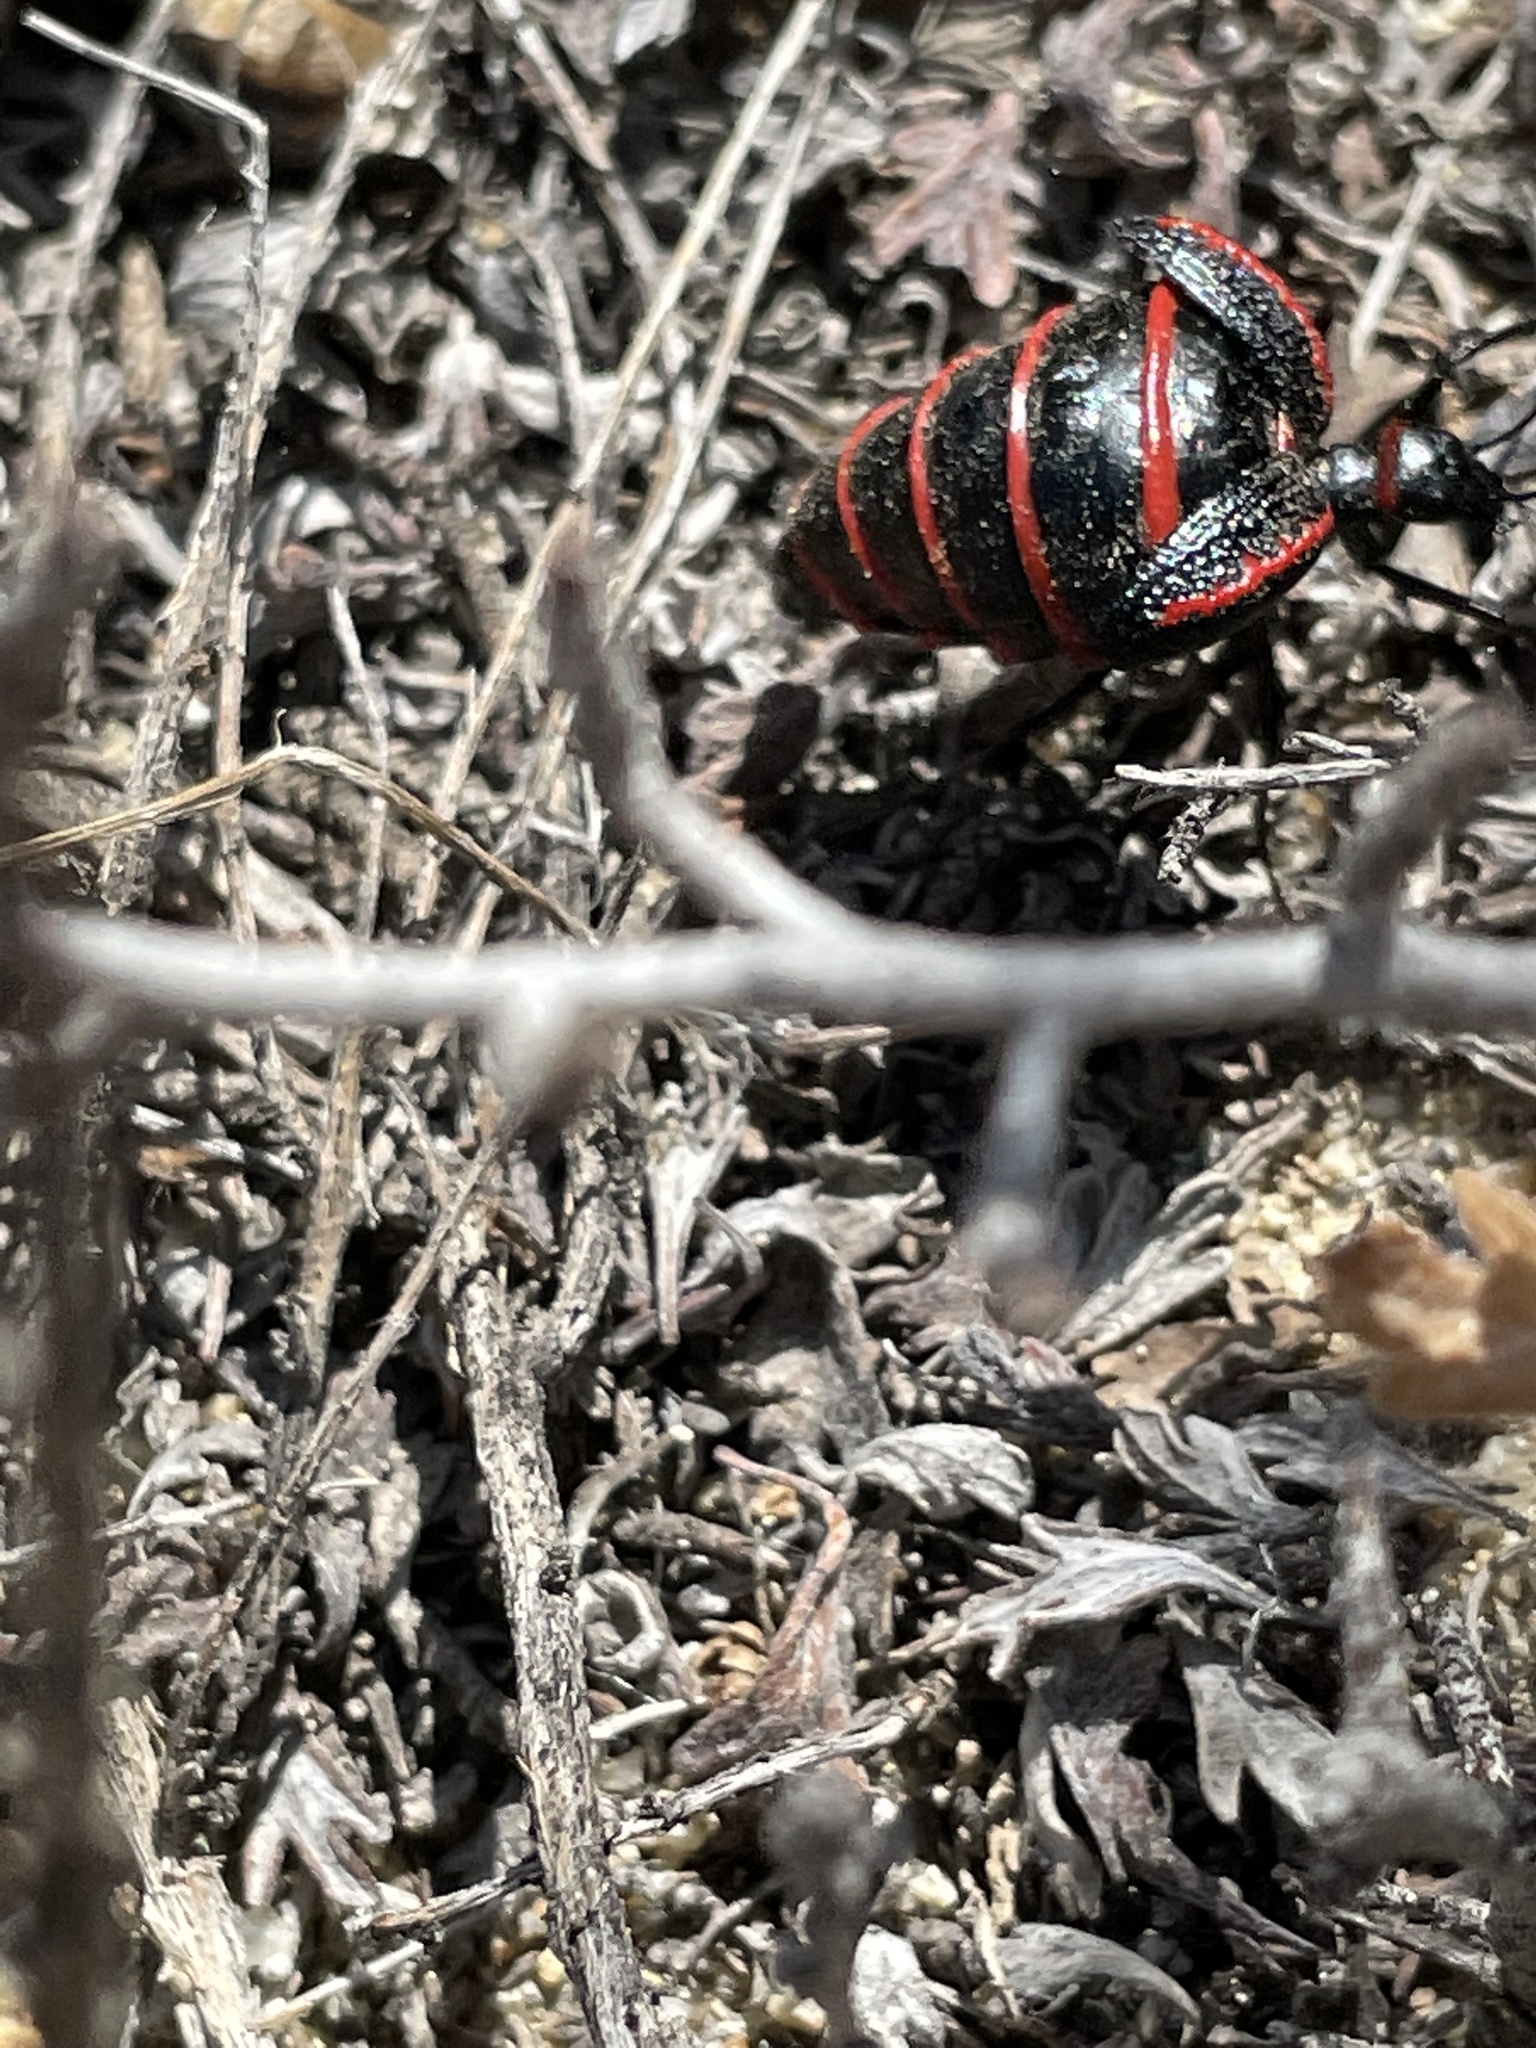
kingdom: Animalia
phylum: Arthropoda
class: Insecta
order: Coleoptera
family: Meloidae
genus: Megetra
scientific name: Megetra vittata
